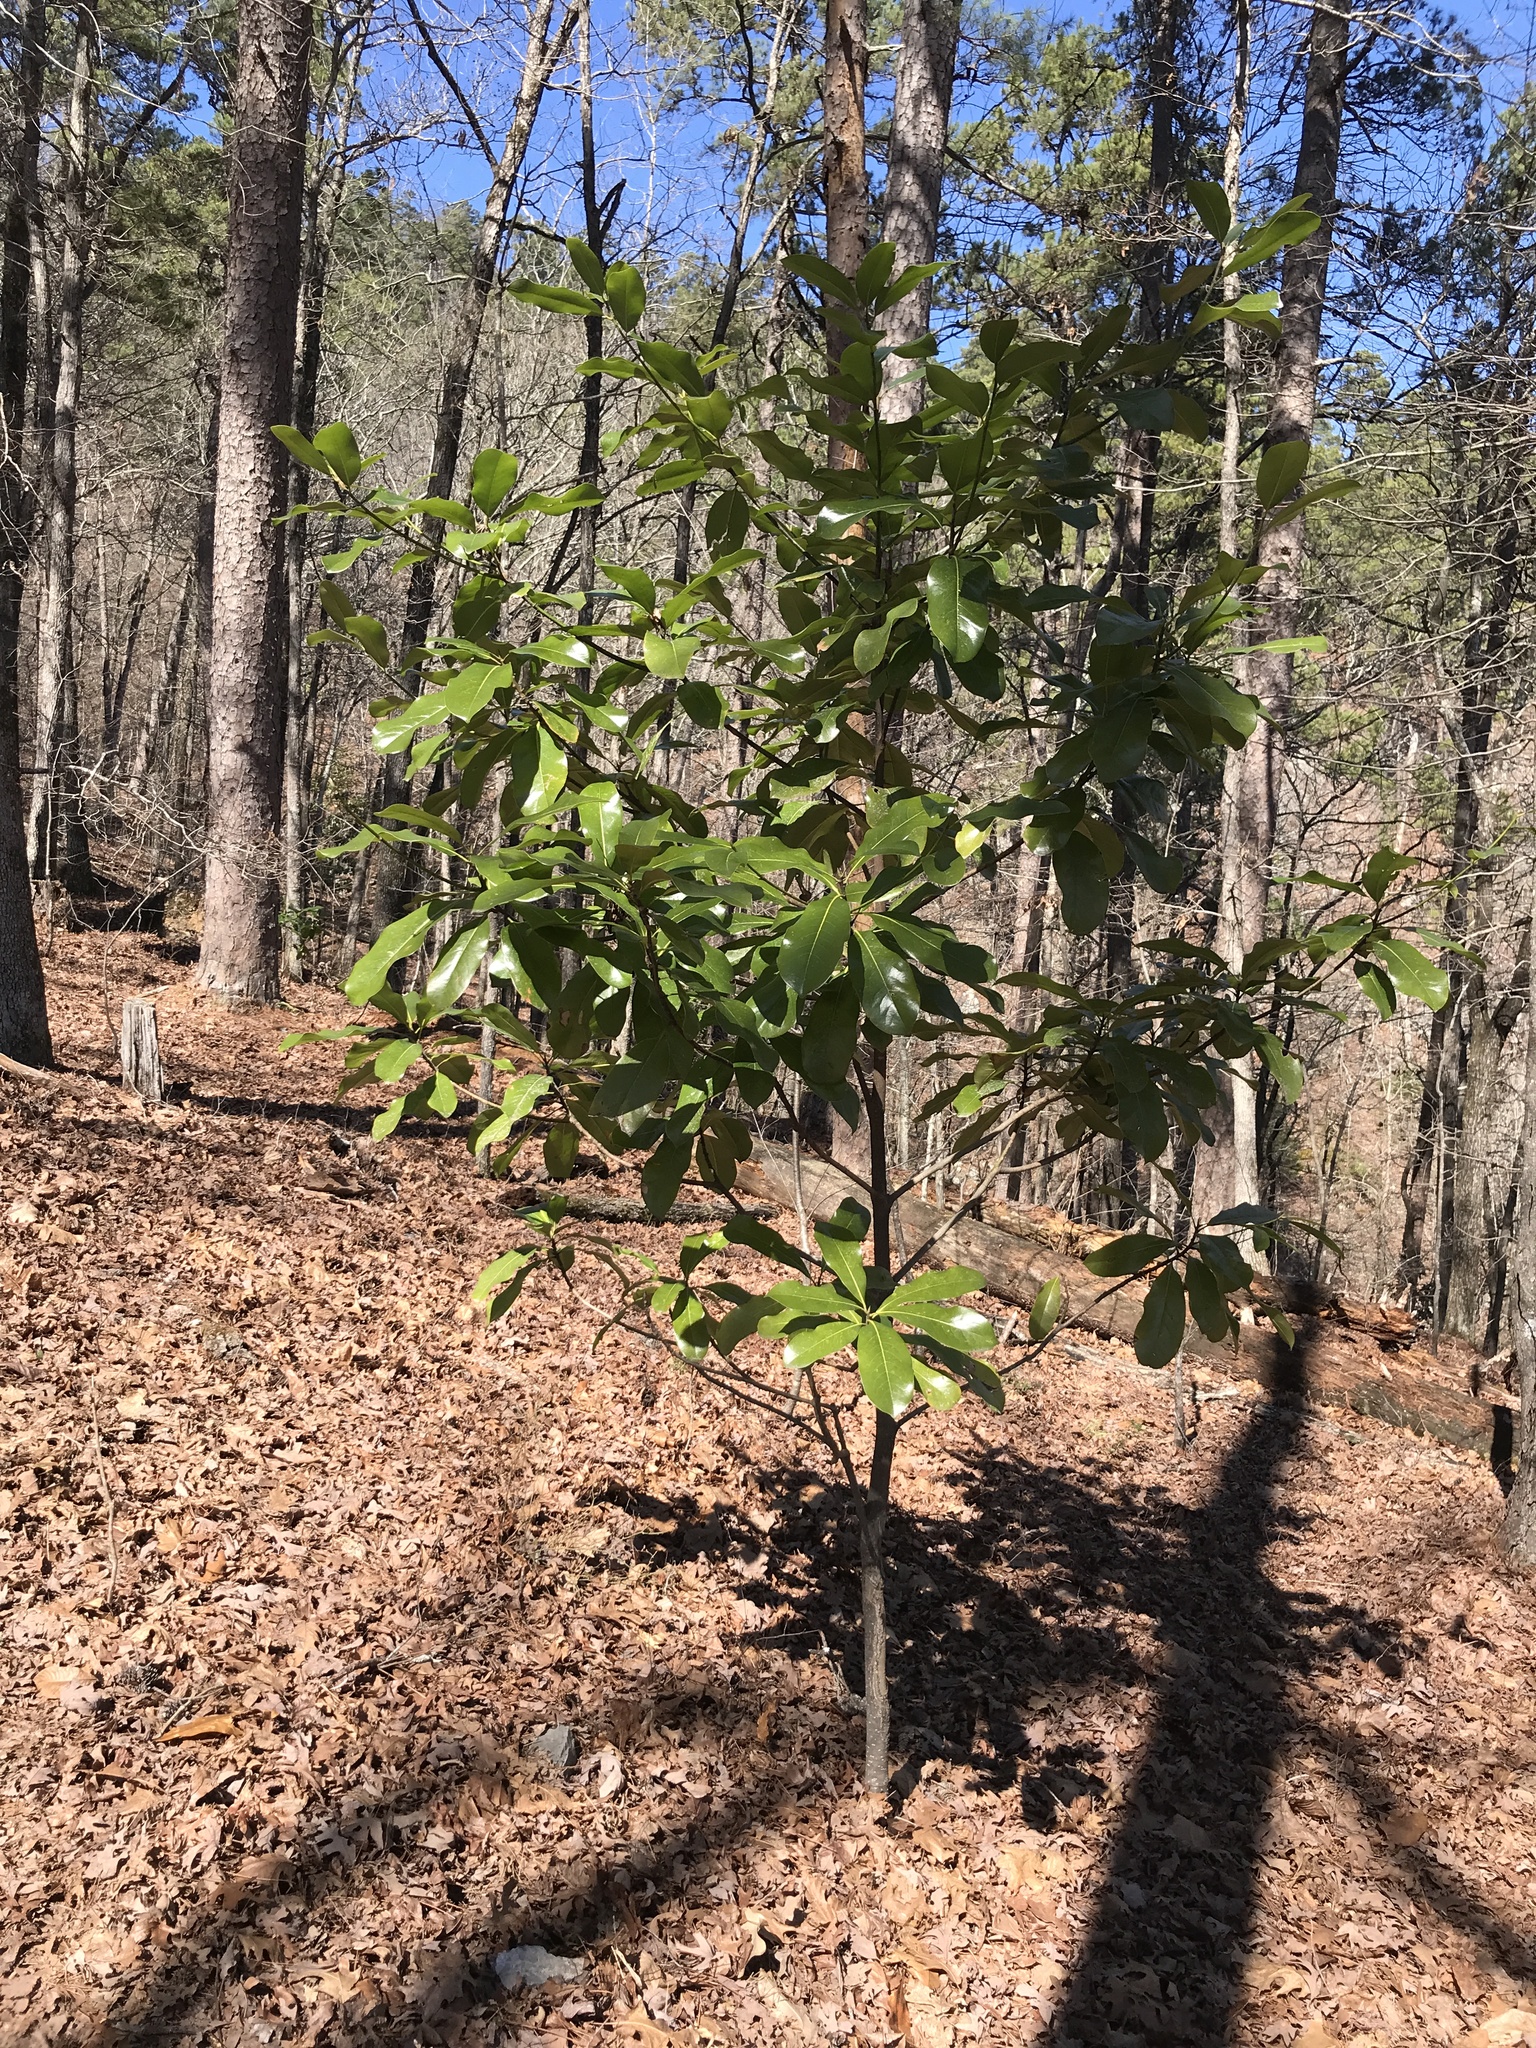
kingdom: Plantae
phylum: Tracheophyta
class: Magnoliopsida
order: Magnoliales
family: Magnoliaceae
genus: Magnolia
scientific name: Magnolia grandiflora
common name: Southern magnolia
